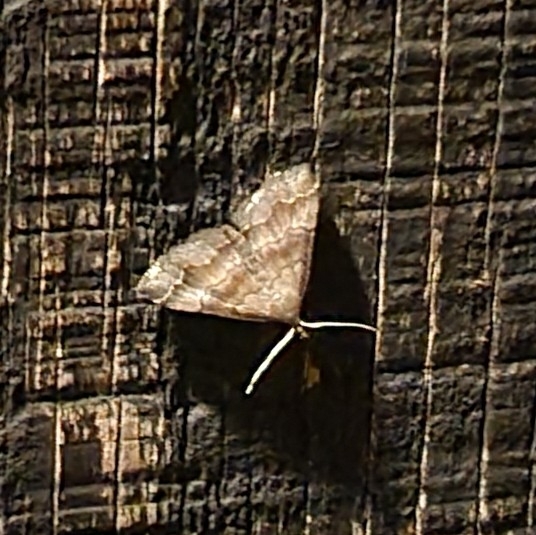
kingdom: Animalia
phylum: Arthropoda
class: Insecta
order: Lepidoptera
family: Erebidae
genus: Phalaenostola
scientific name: Phalaenostola larentioides
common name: Black-banded owlet
